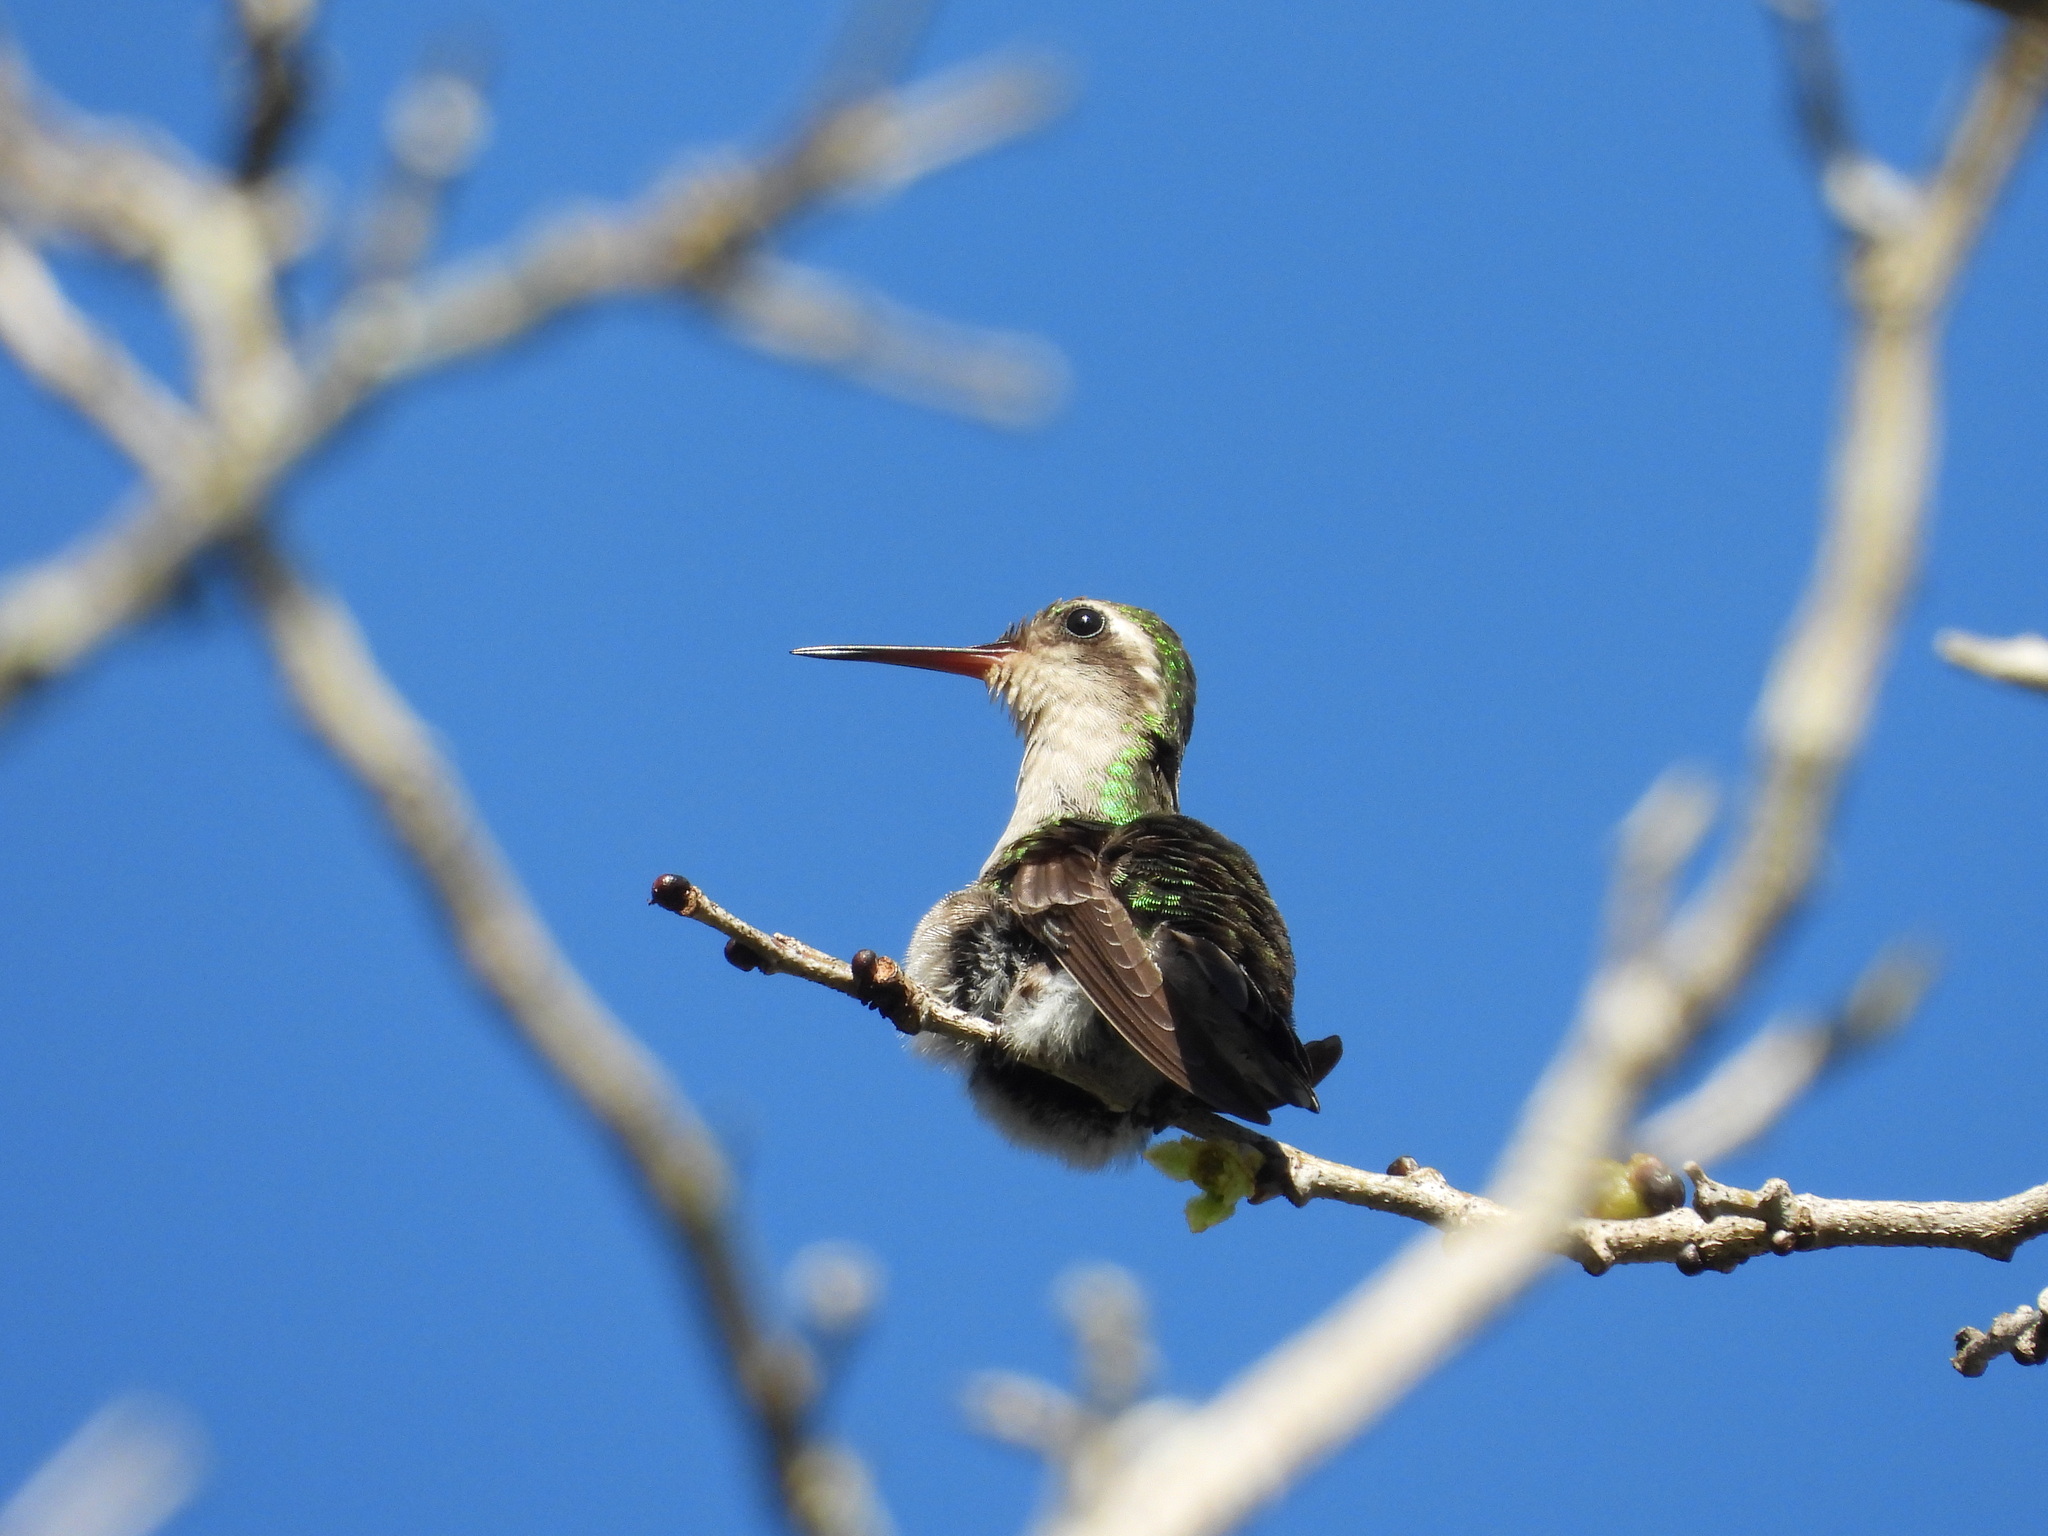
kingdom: Animalia
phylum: Chordata
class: Aves
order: Apodiformes
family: Trochilidae
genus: Chlorestes
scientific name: Chlorestes candida
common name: White-bellied emerald
